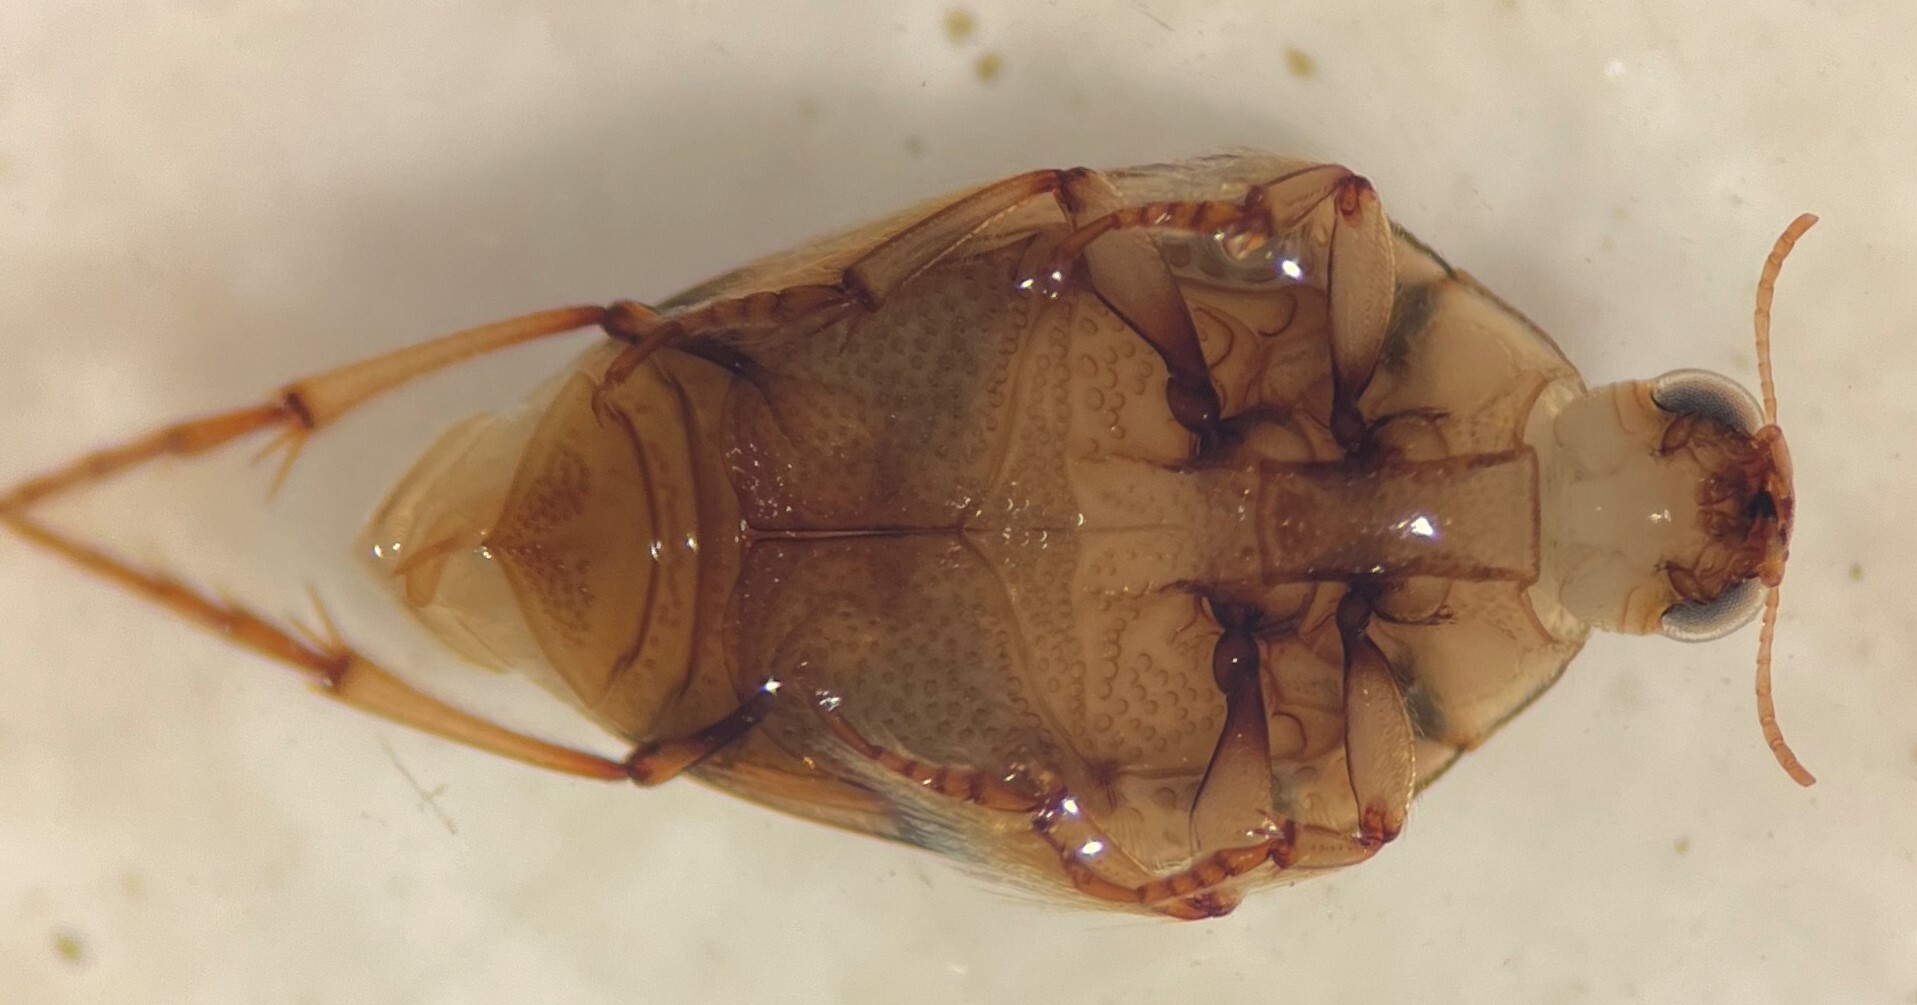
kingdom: Animalia
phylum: Arthropoda
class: Insecta
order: Coleoptera
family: Haliplidae
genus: Haliplus
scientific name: Haliplus triopsis
